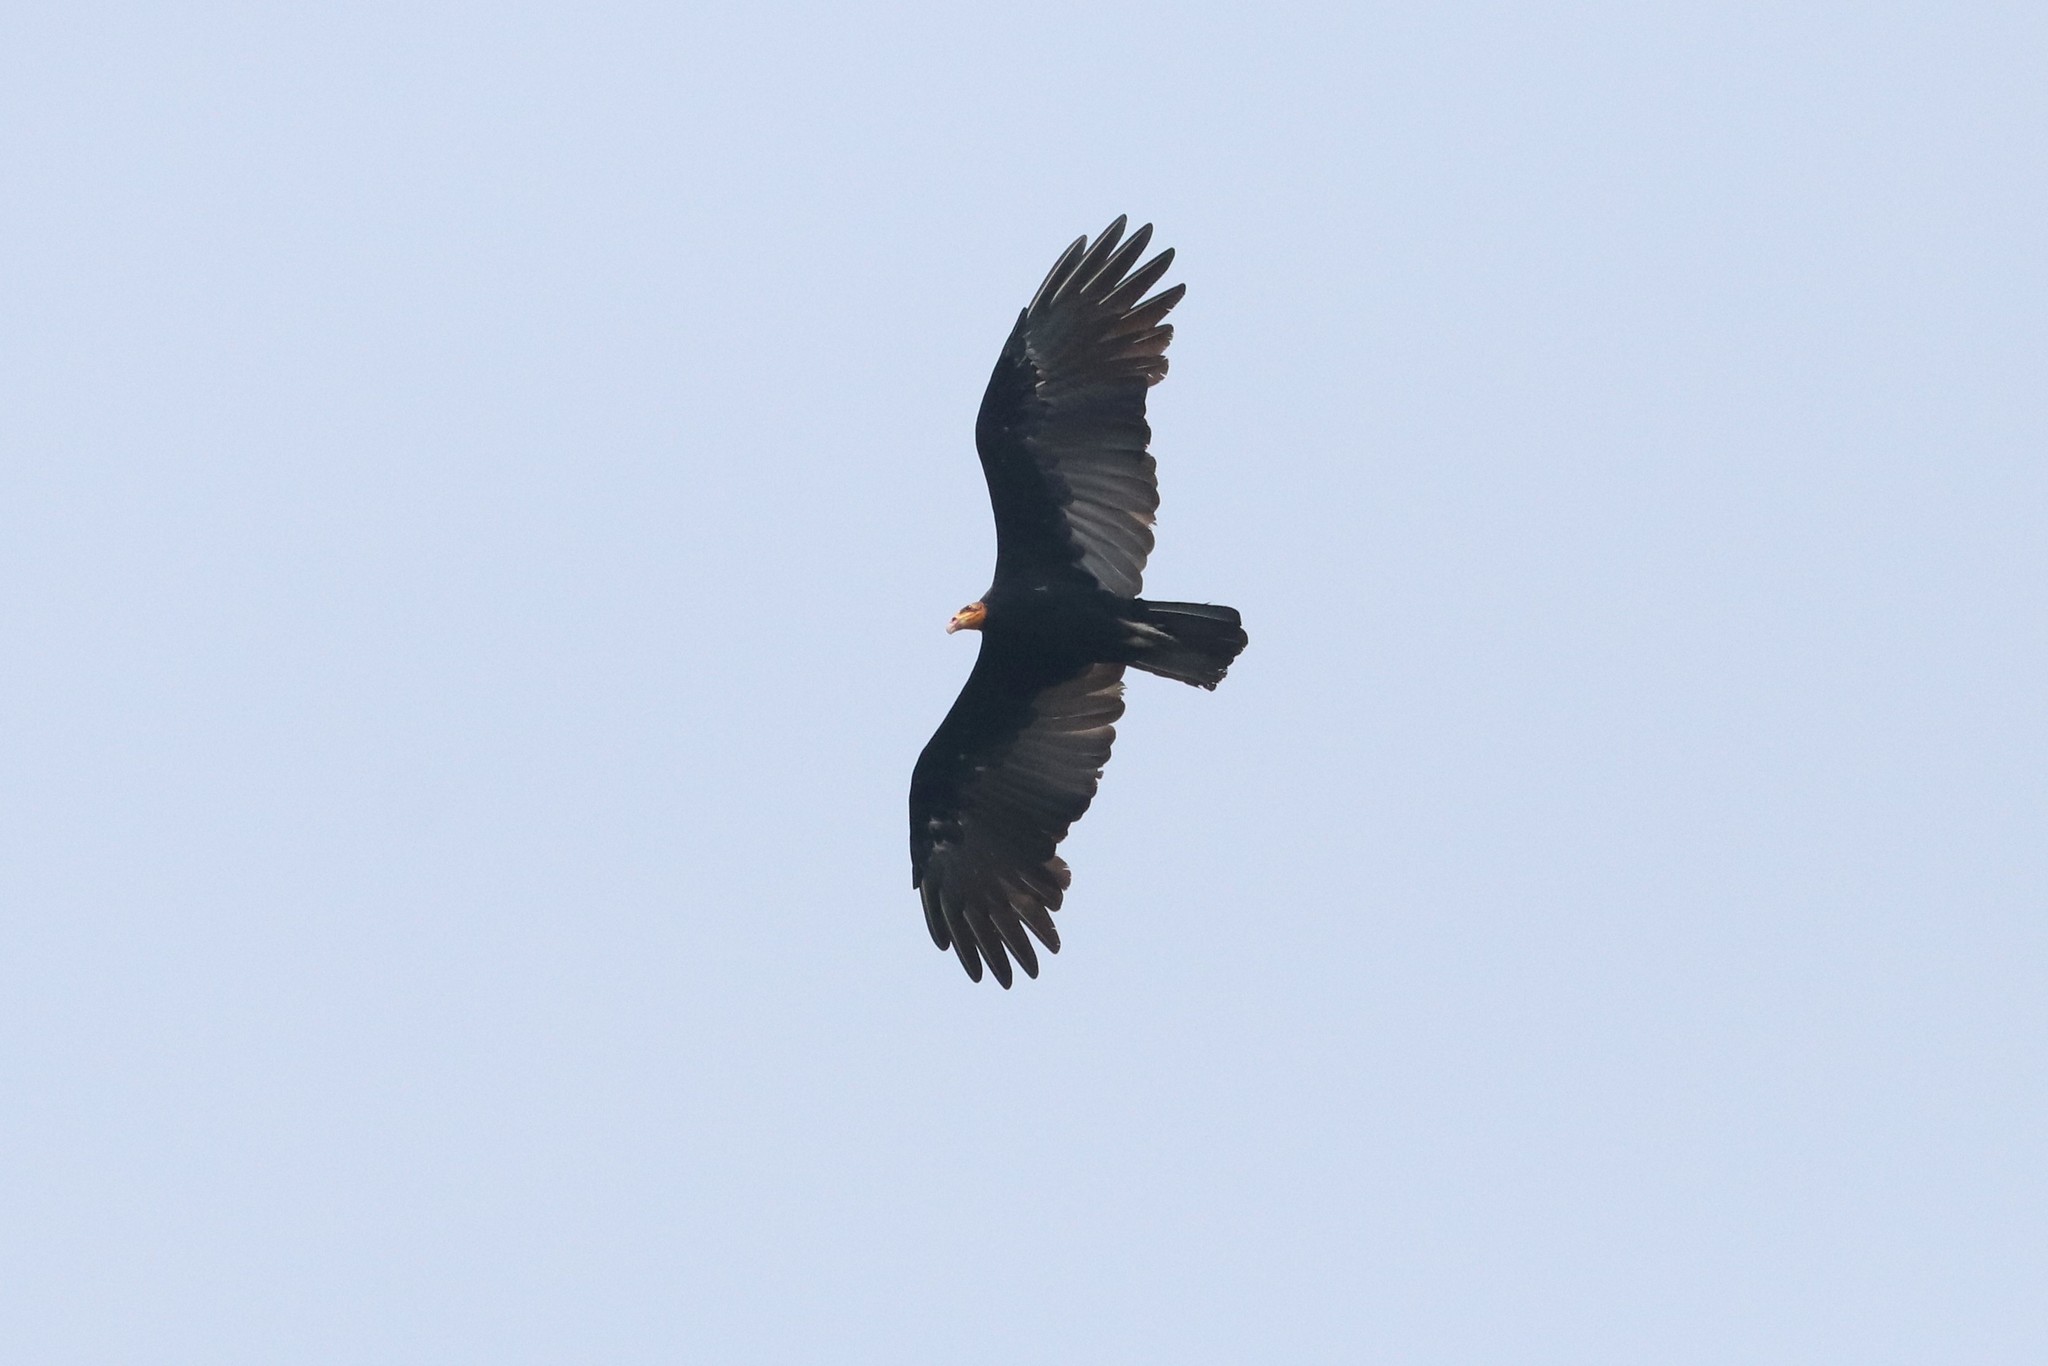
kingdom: Animalia
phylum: Chordata
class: Aves
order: Accipitriformes
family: Cathartidae
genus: Cathartes
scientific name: Cathartes melambrotus
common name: Greater yellow-headed vulture
